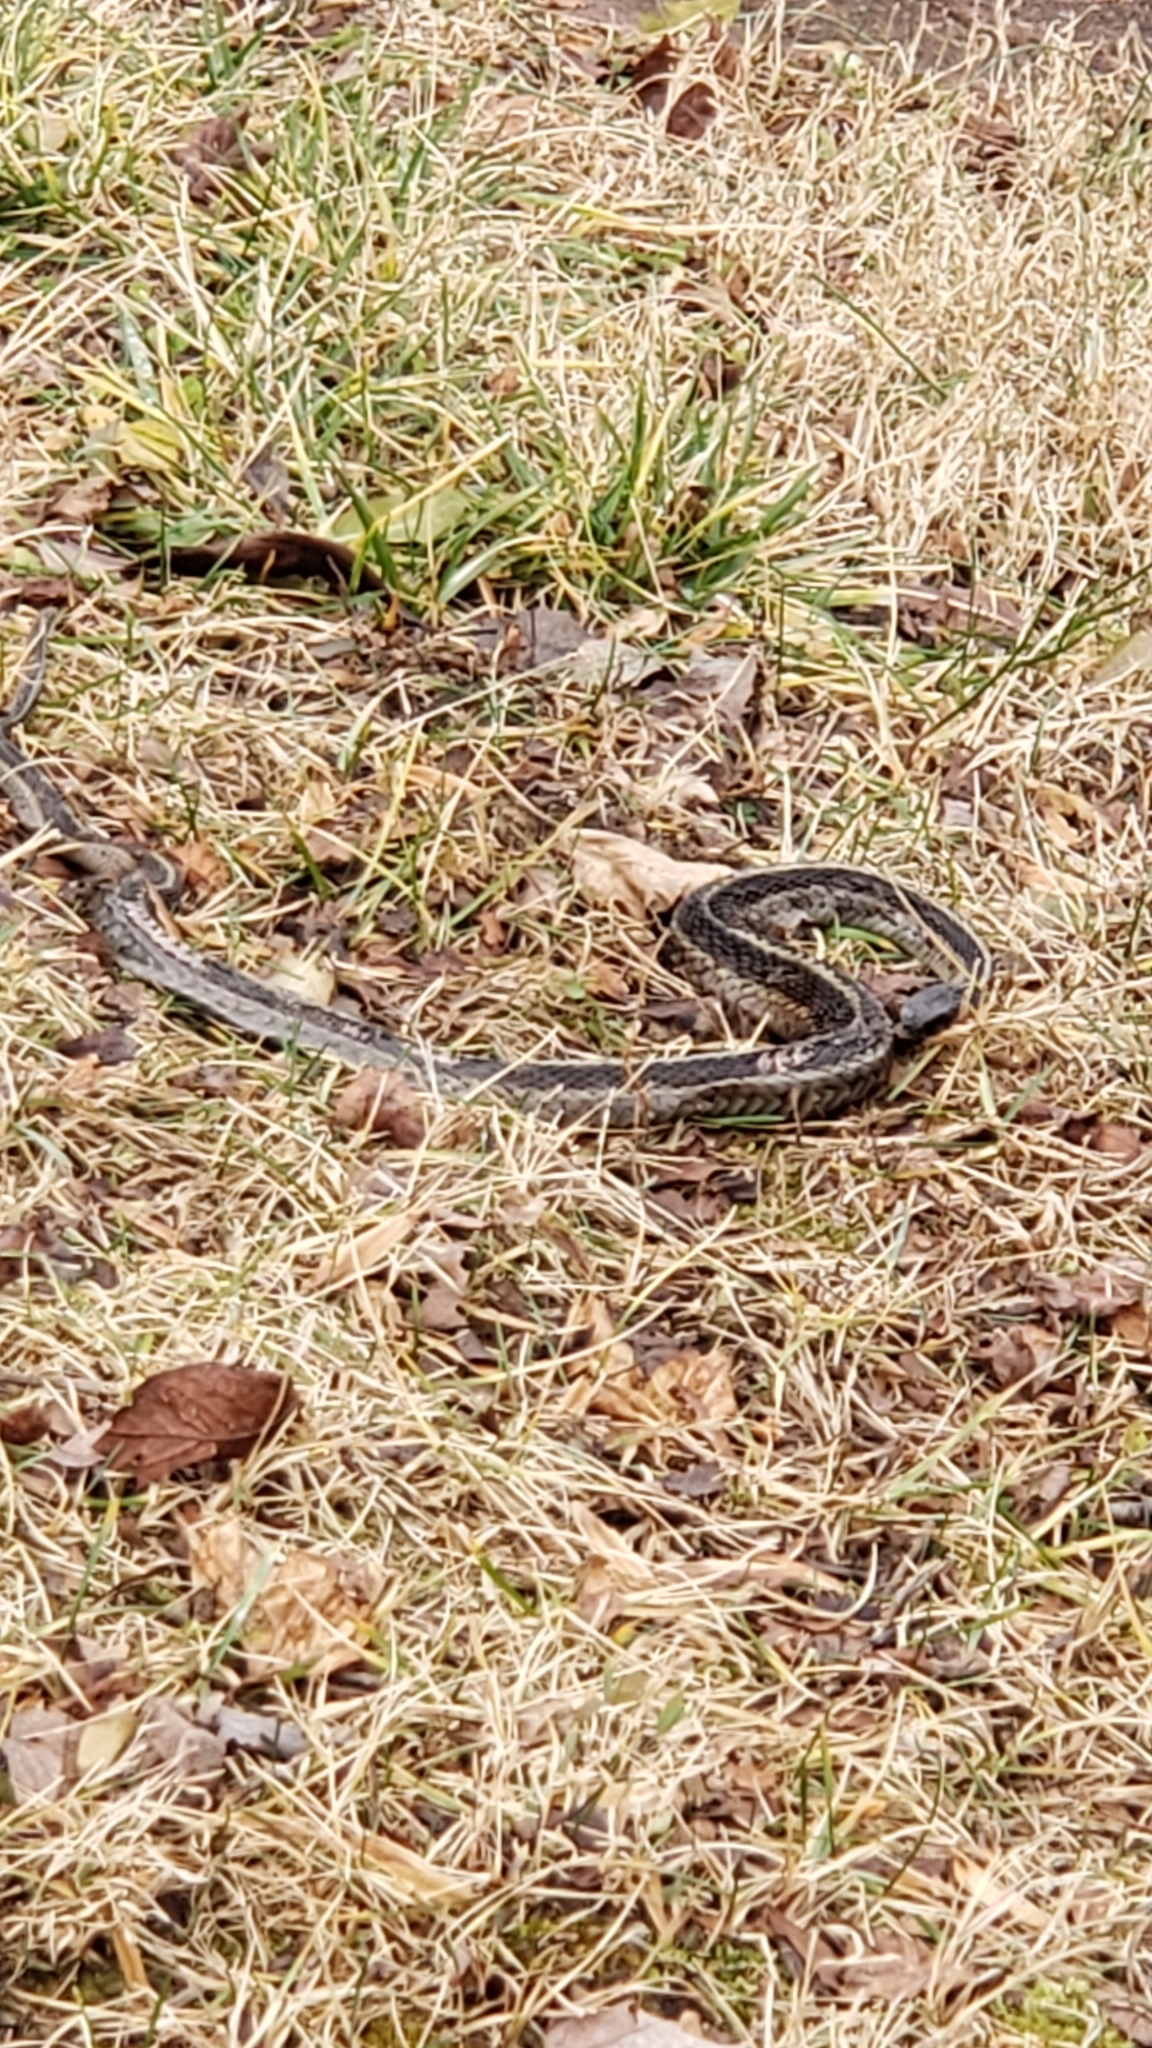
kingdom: Animalia
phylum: Chordata
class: Squamata
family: Colubridae
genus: Thamnophis
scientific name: Thamnophis sirtalis
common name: Common garter snake
